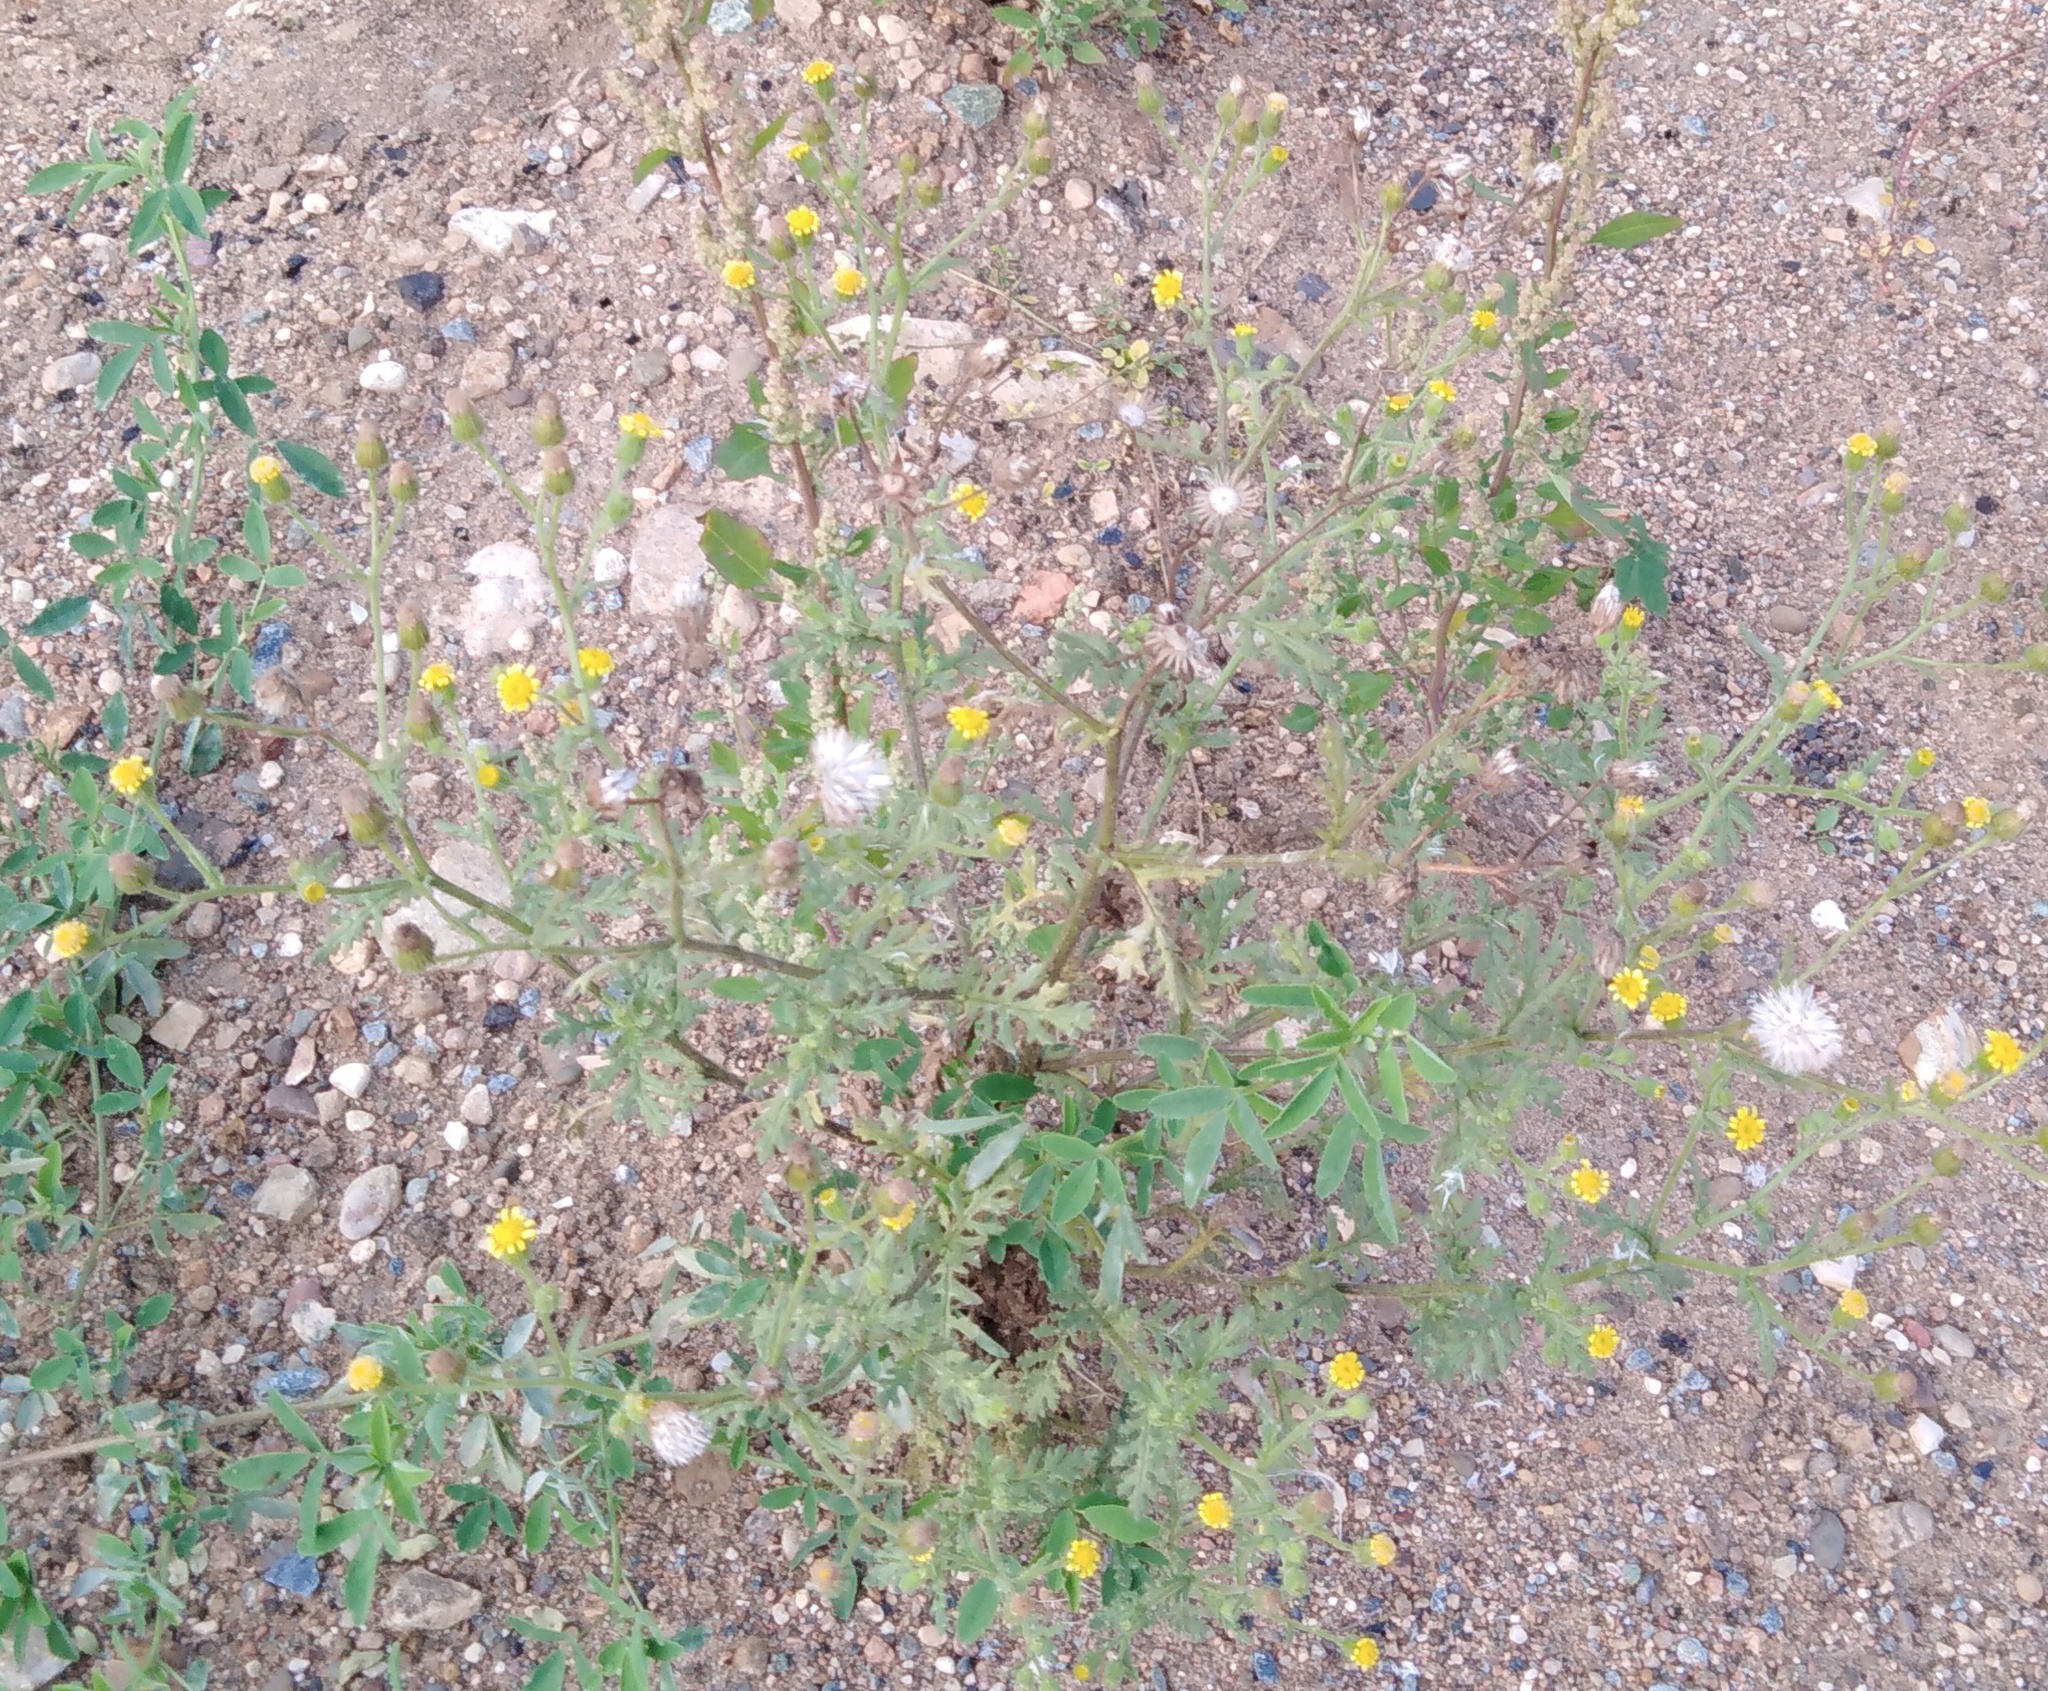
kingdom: Plantae
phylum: Tracheophyta
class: Magnoliopsida
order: Asterales
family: Asteraceae
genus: Senecio
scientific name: Senecio viscosus
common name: Sticky groundsel
